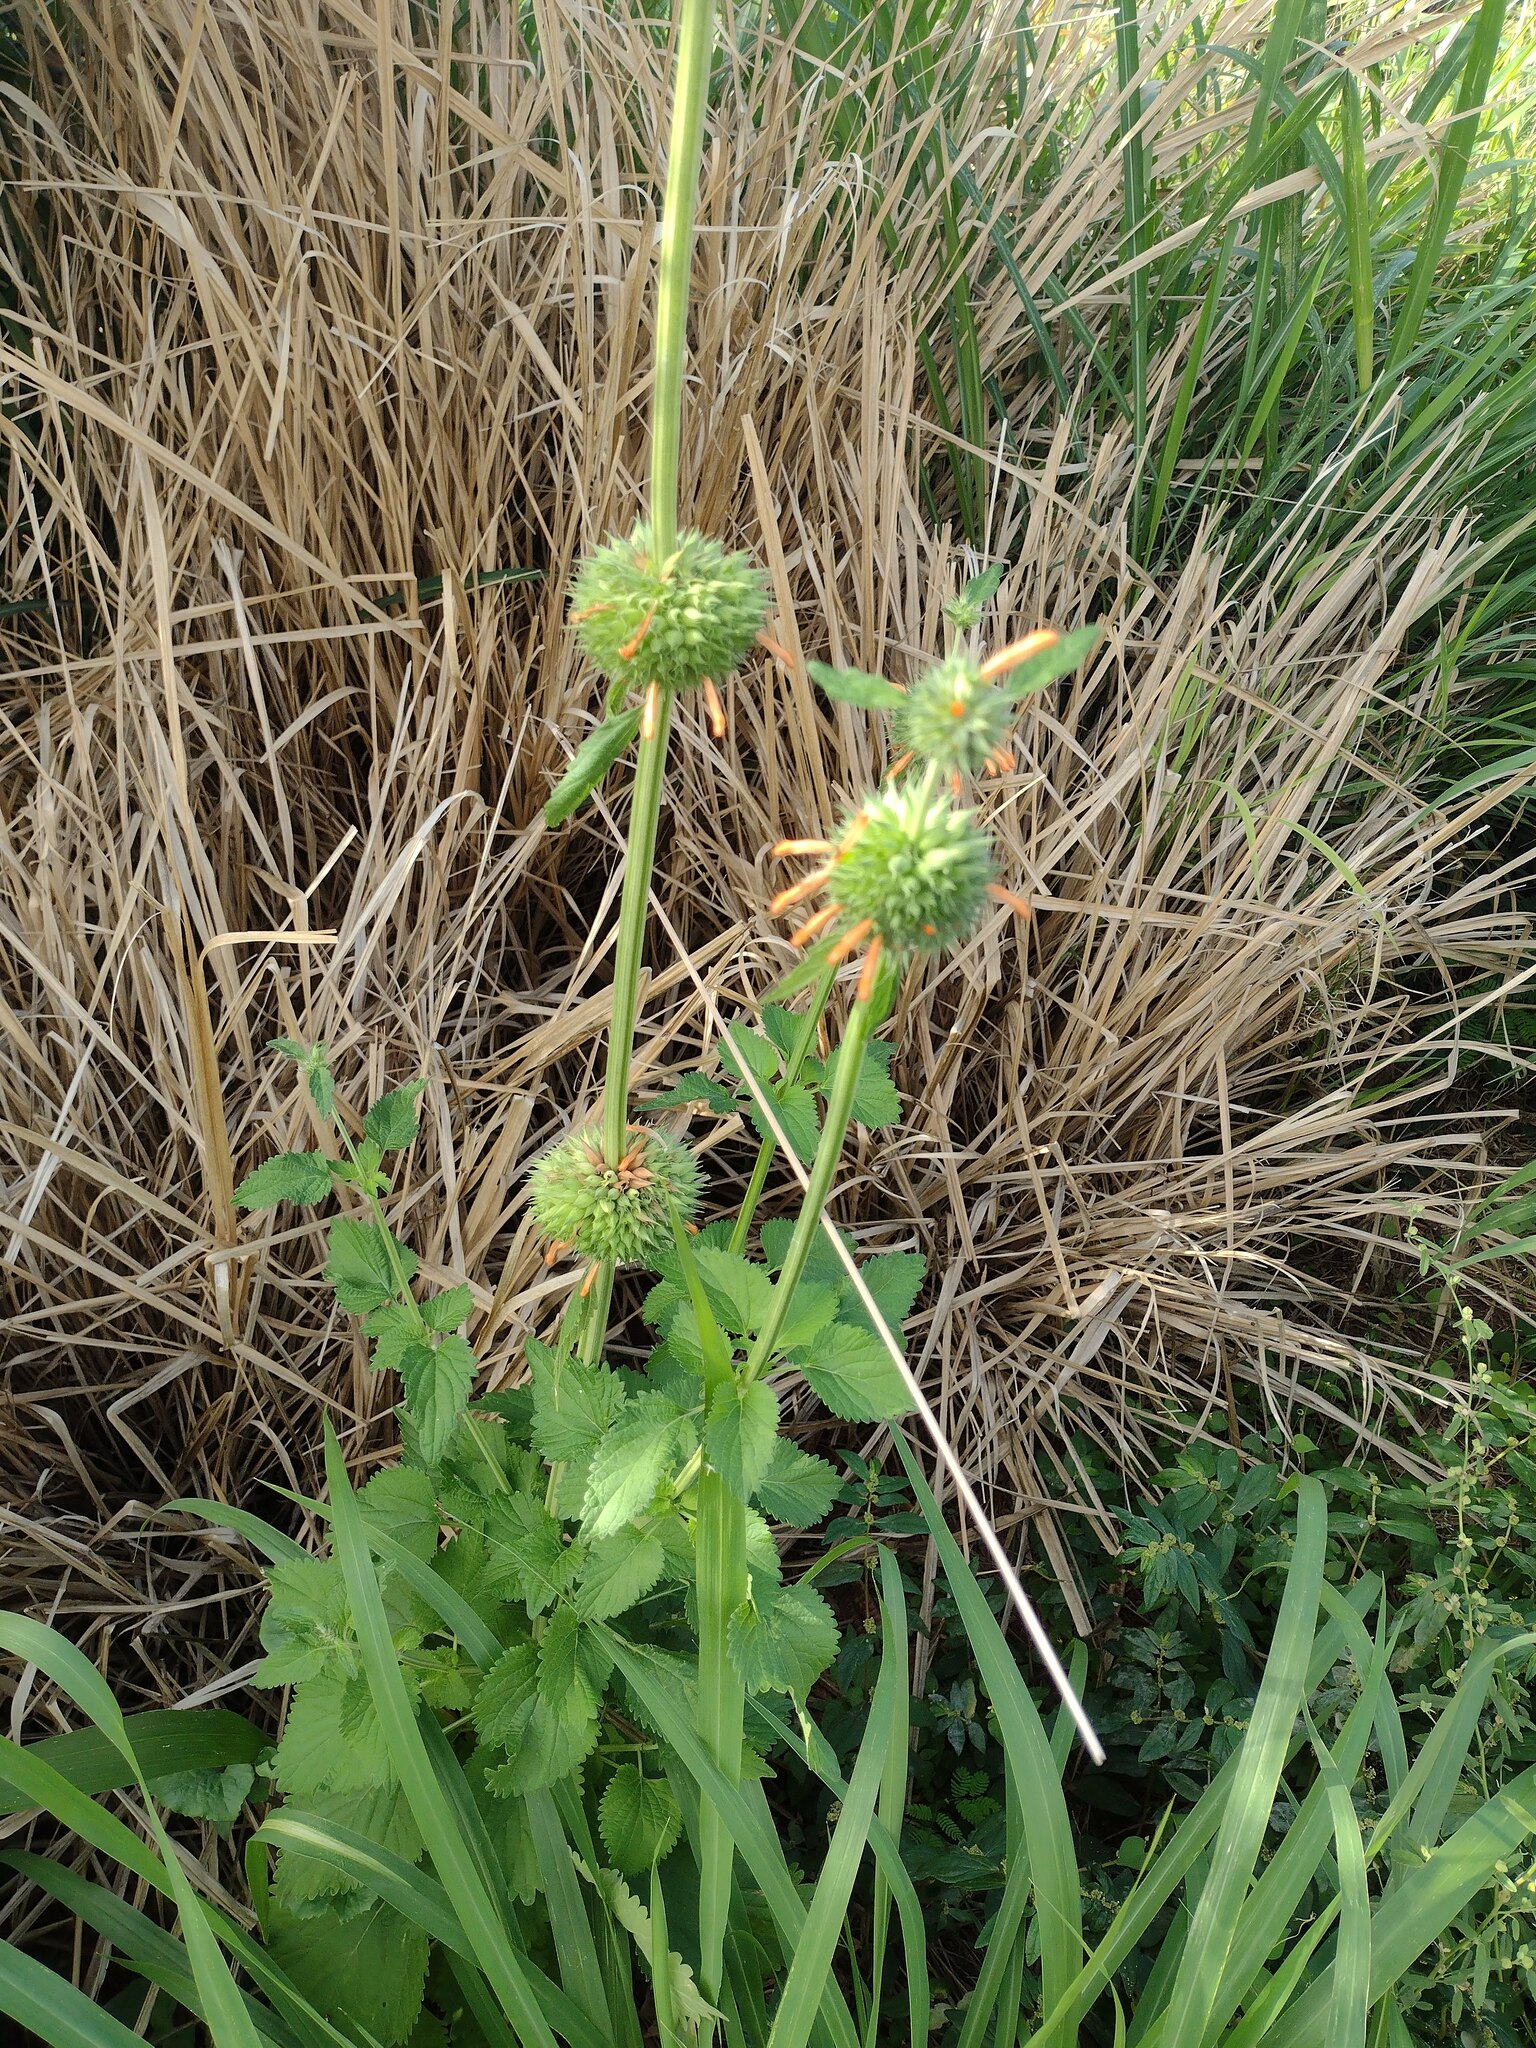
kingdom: Plantae
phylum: Tracheophyta
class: Magnoliopsida
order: Lamiales
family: Lamiaceae
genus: Leonotis
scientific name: Leonotis nepetifolia
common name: Christmas candlestick
